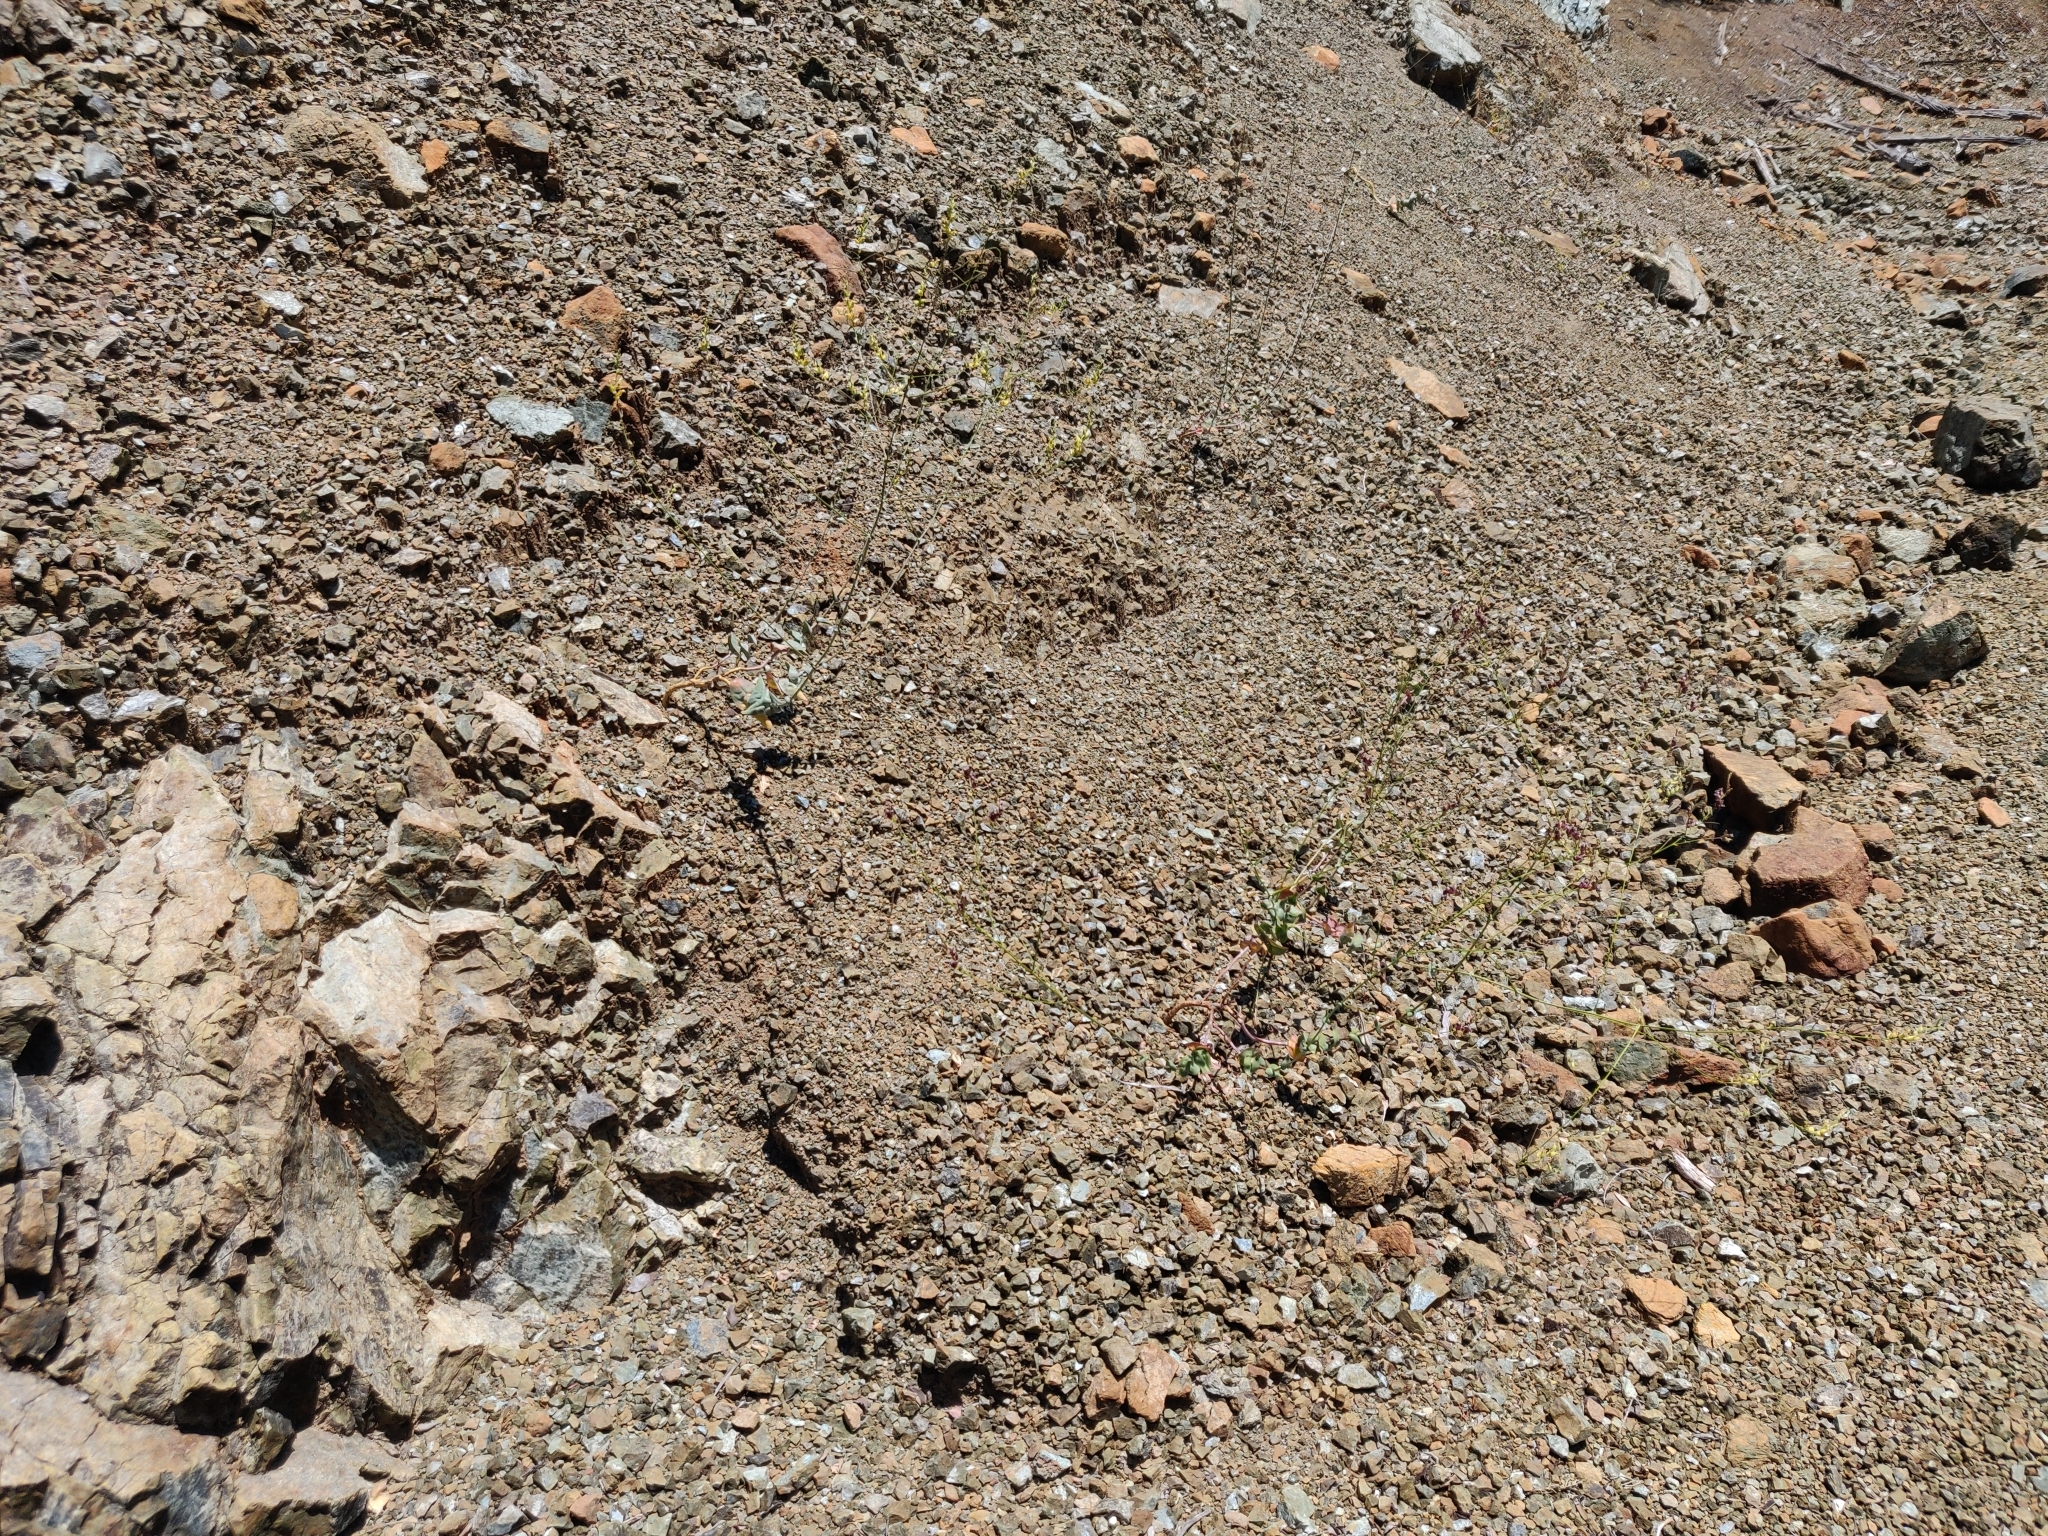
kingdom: Plantae
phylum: Tracheophyta
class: Magnoliopsida
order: Brassicales
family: Brassicaceae
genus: Streptanthus
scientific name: Streptanthus morrisonii
